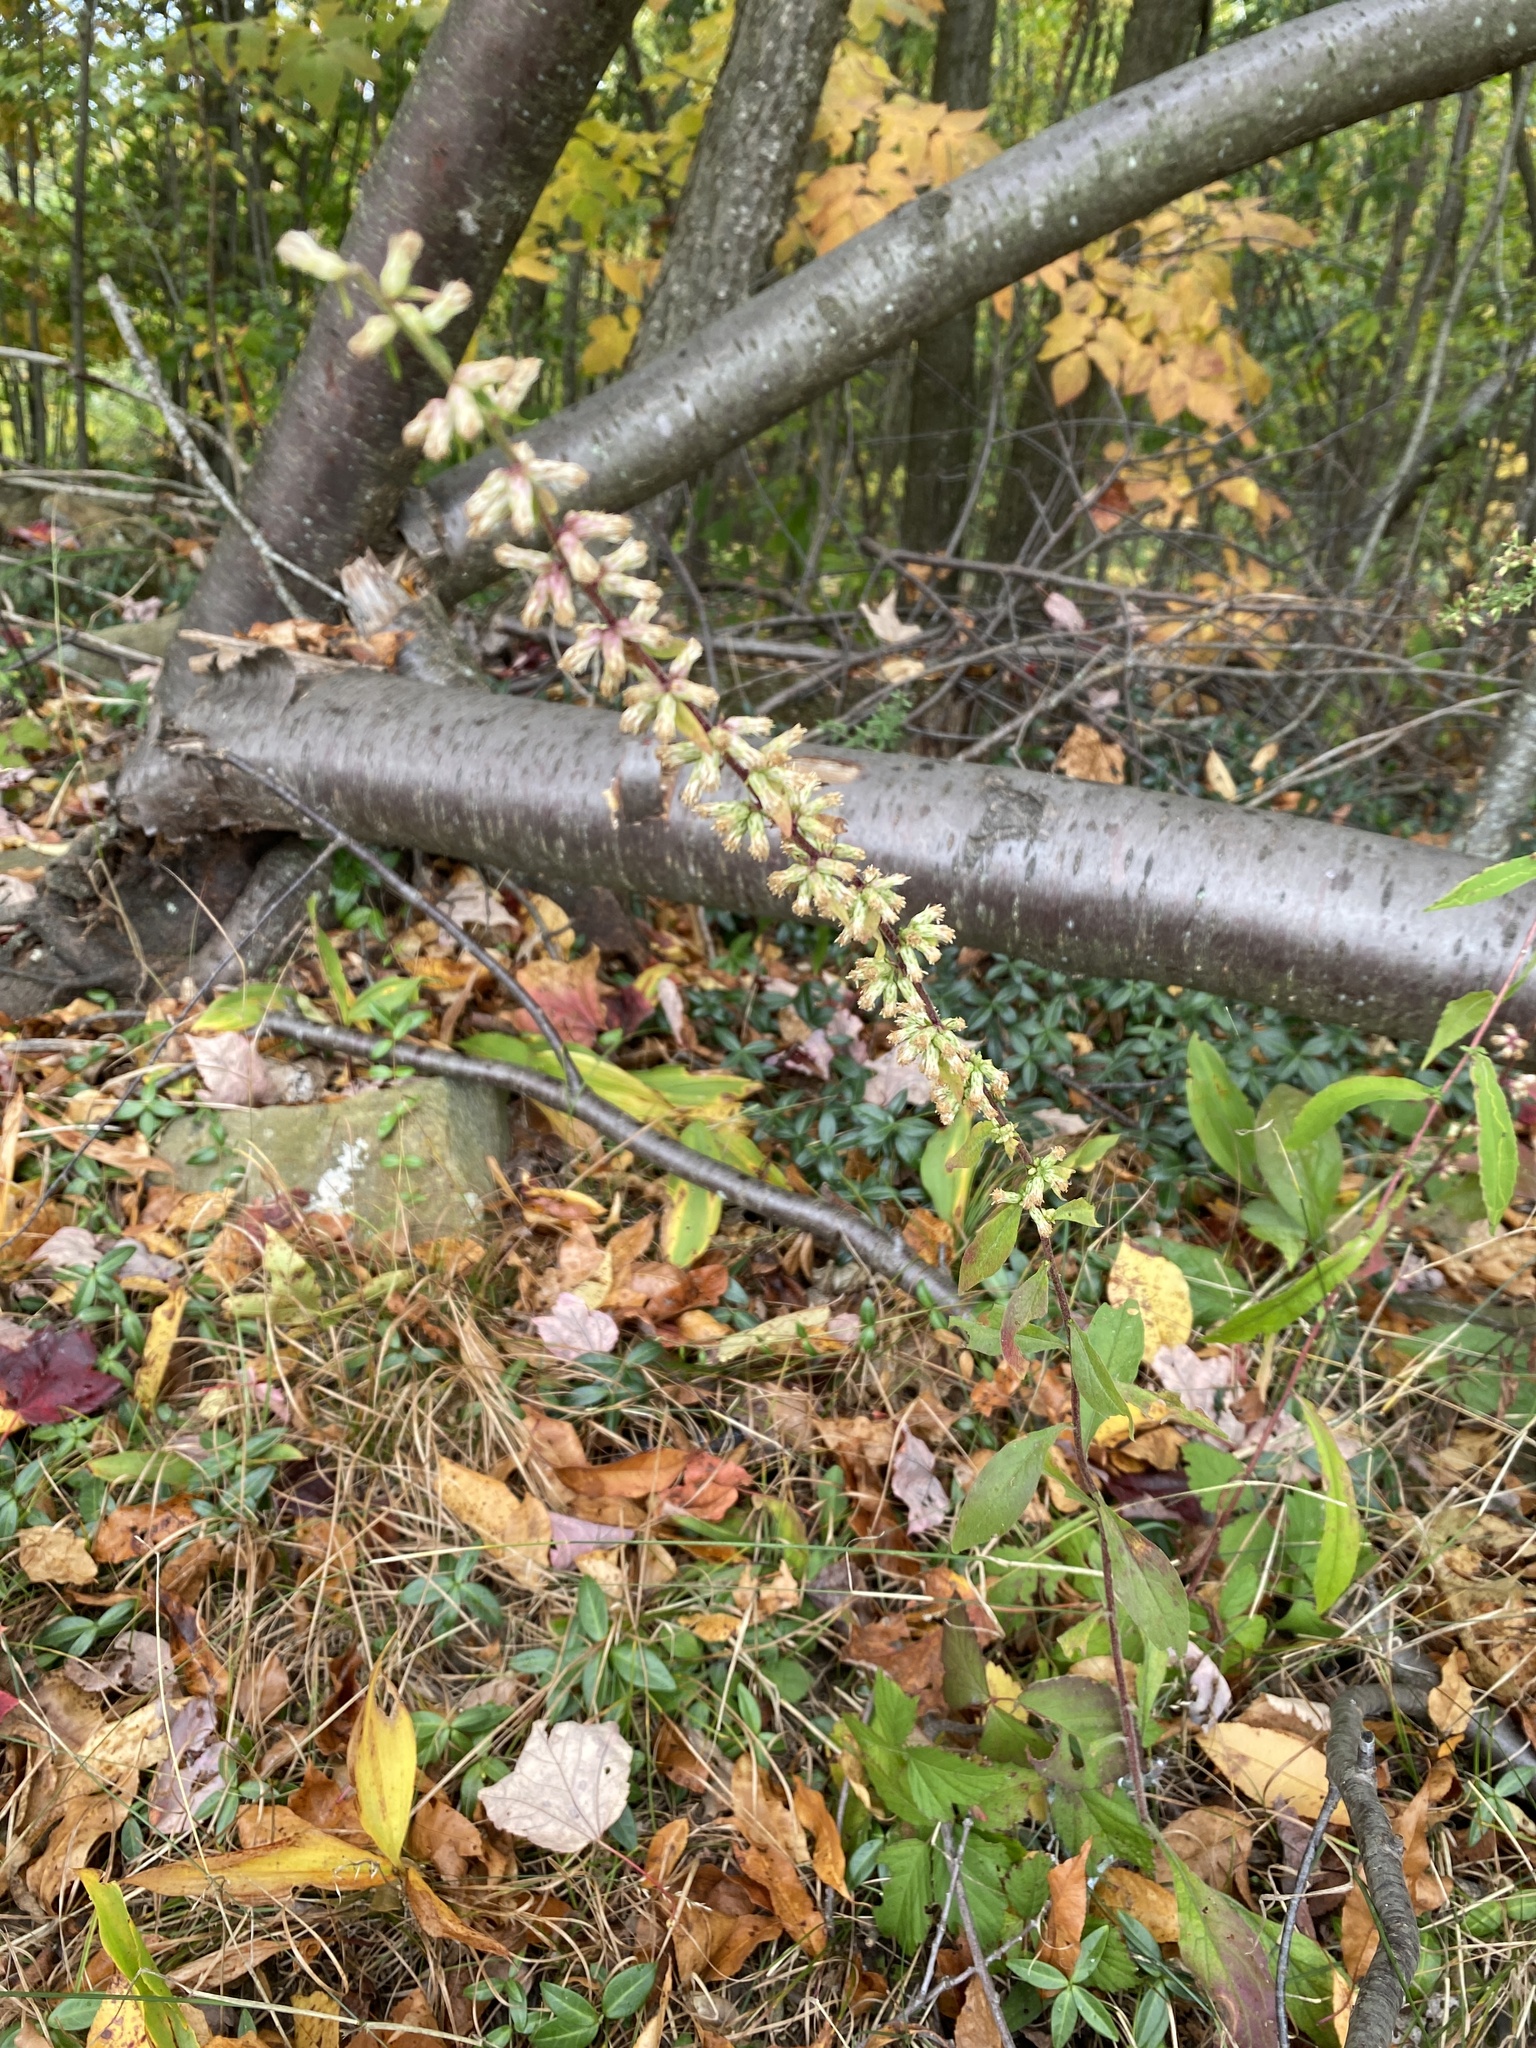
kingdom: Plantae
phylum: Tracheophyta
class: Magnoliopsida
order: Asterales
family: Asteraceae
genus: Solidago
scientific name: Solidago bicolor
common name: Silverrod
